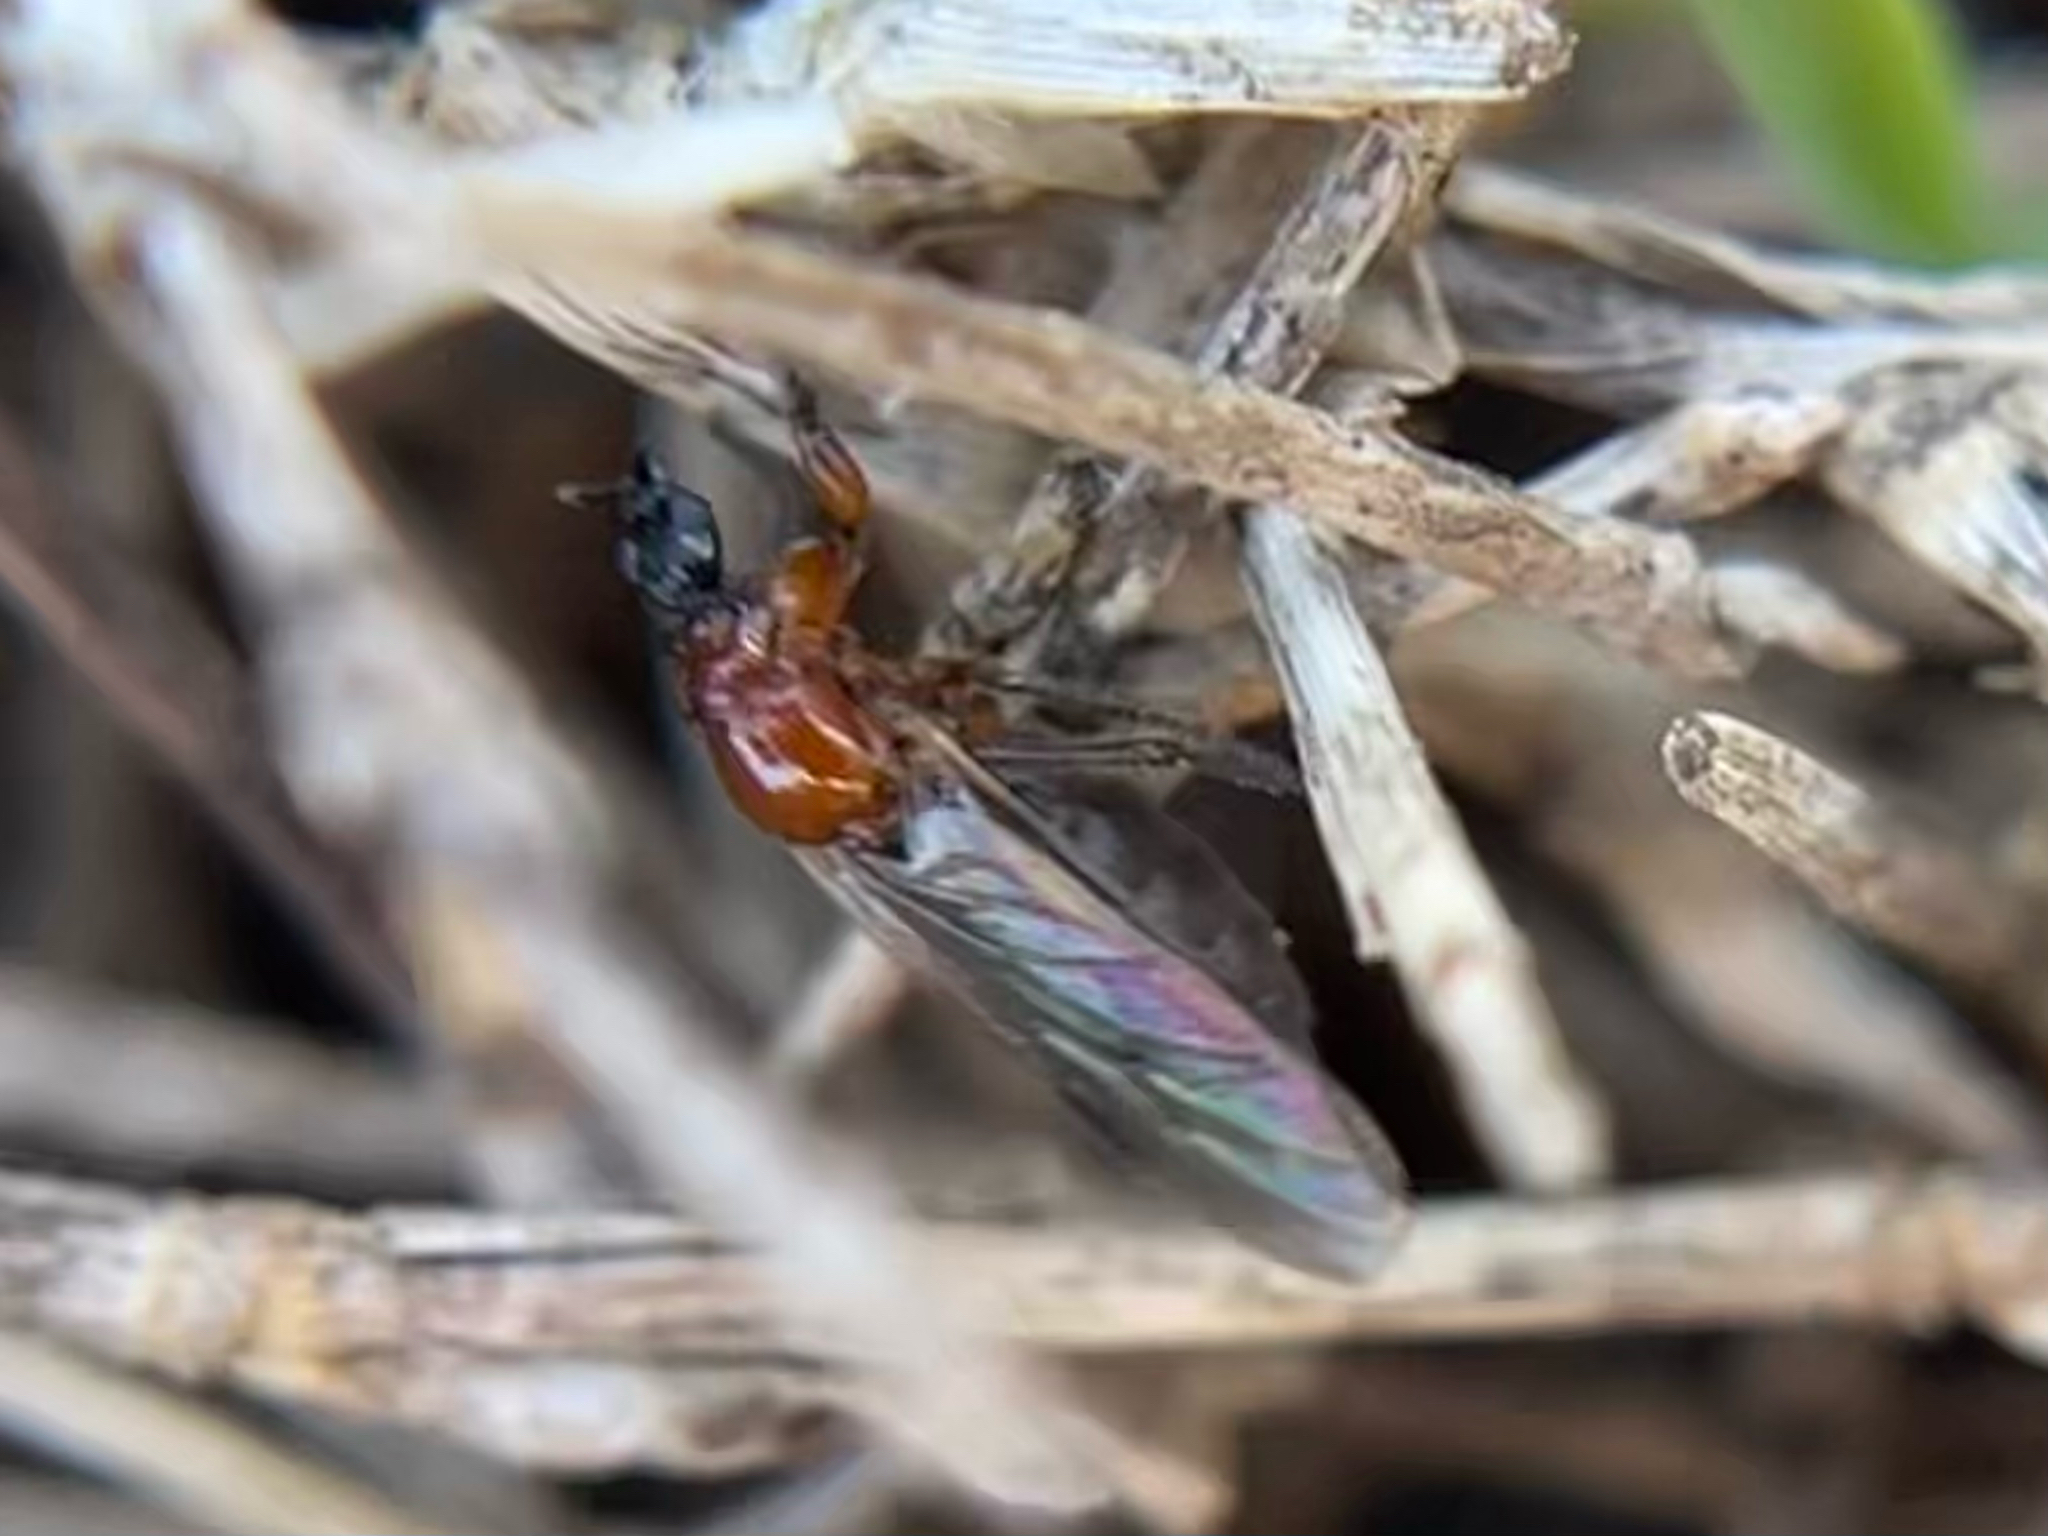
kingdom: Animalia
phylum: Arthropoda
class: Insecta
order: Diptera
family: Bibionidae
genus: Dilophus
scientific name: Dilophus tibialis
